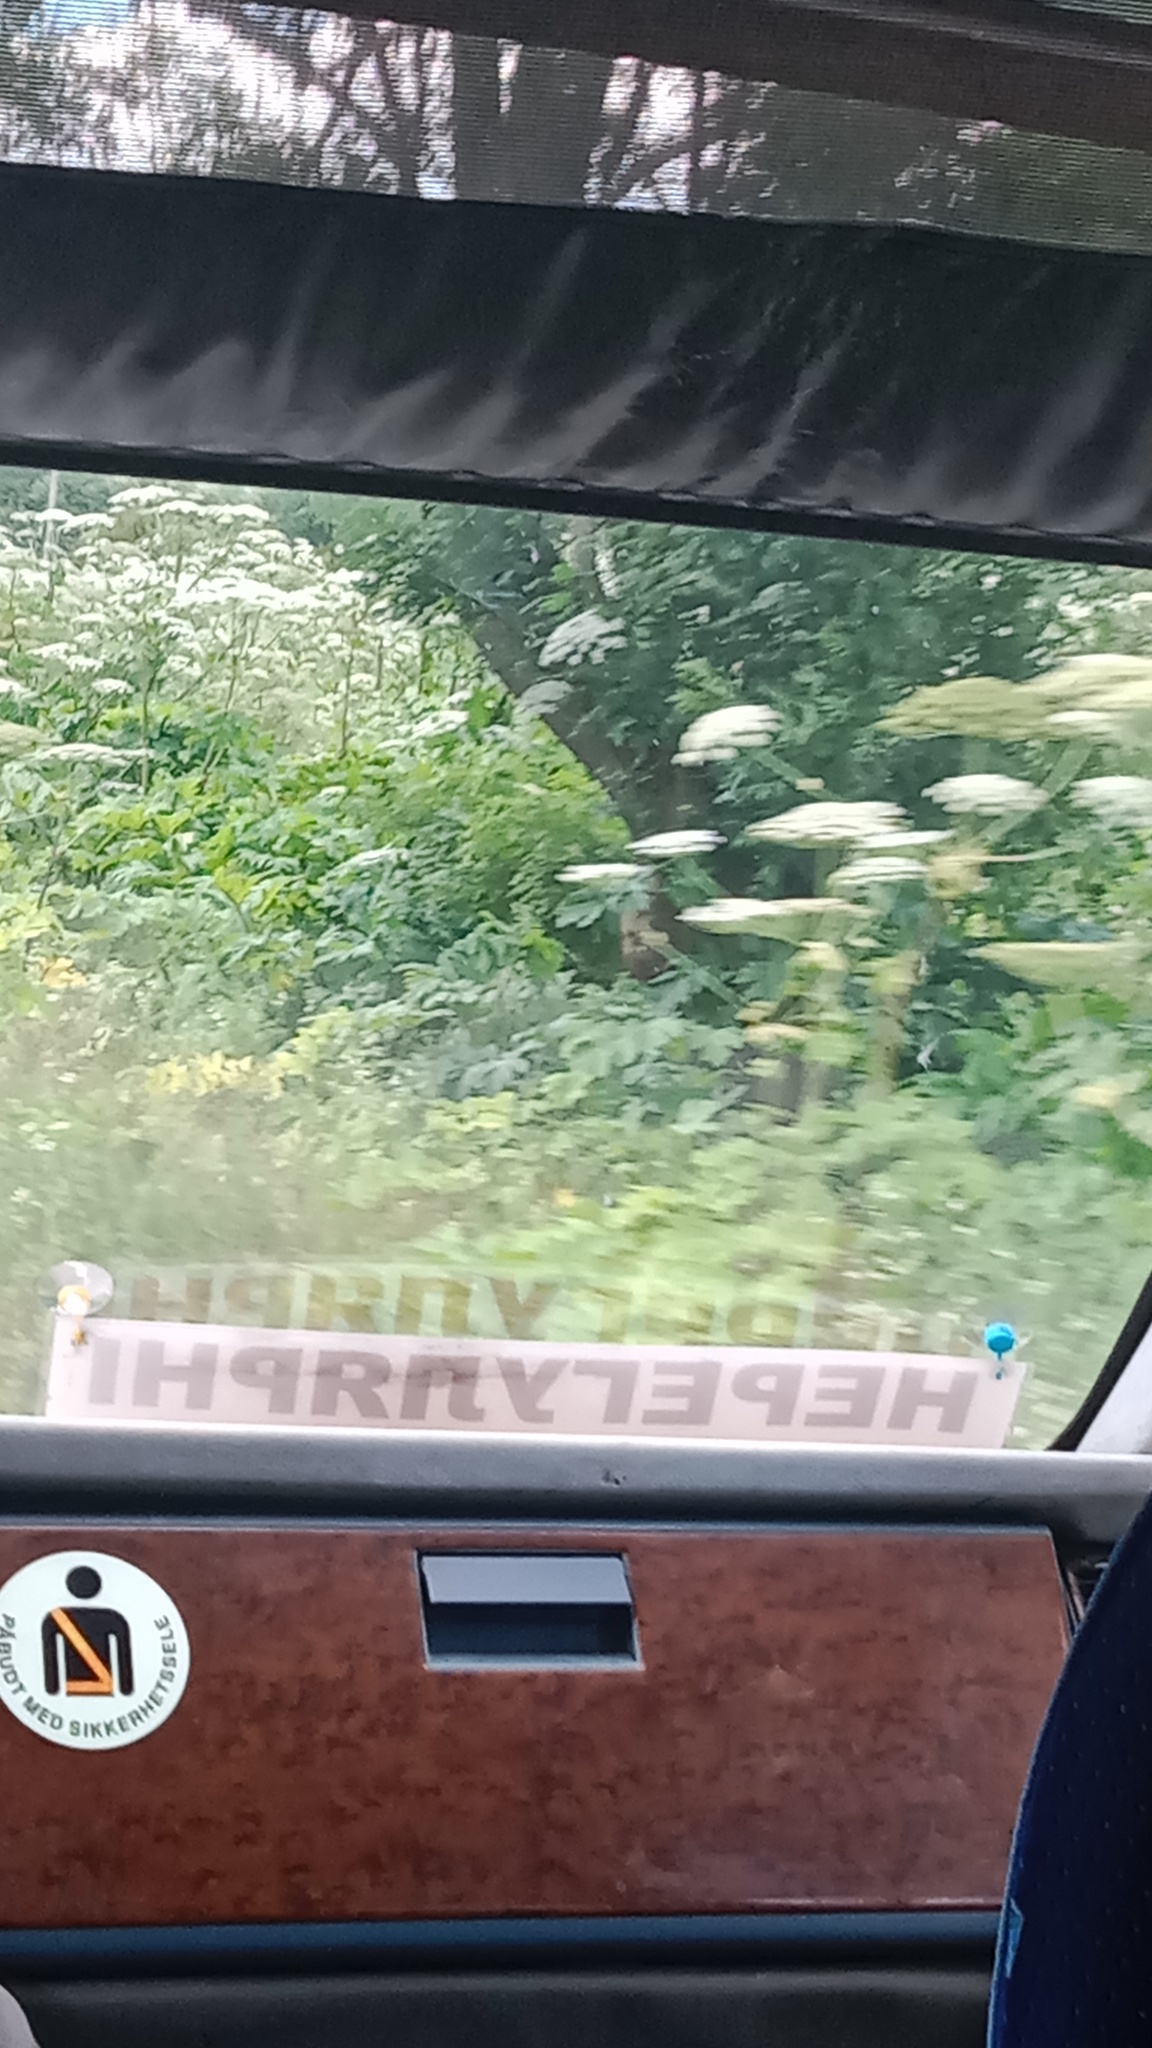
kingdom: Plantae
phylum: Tracheophyta
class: Magnoliopsida
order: Apiales
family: Apiaceae
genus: Heracleum
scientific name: Heracleum sosnowskyi
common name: Sosnowsky's hogweed
